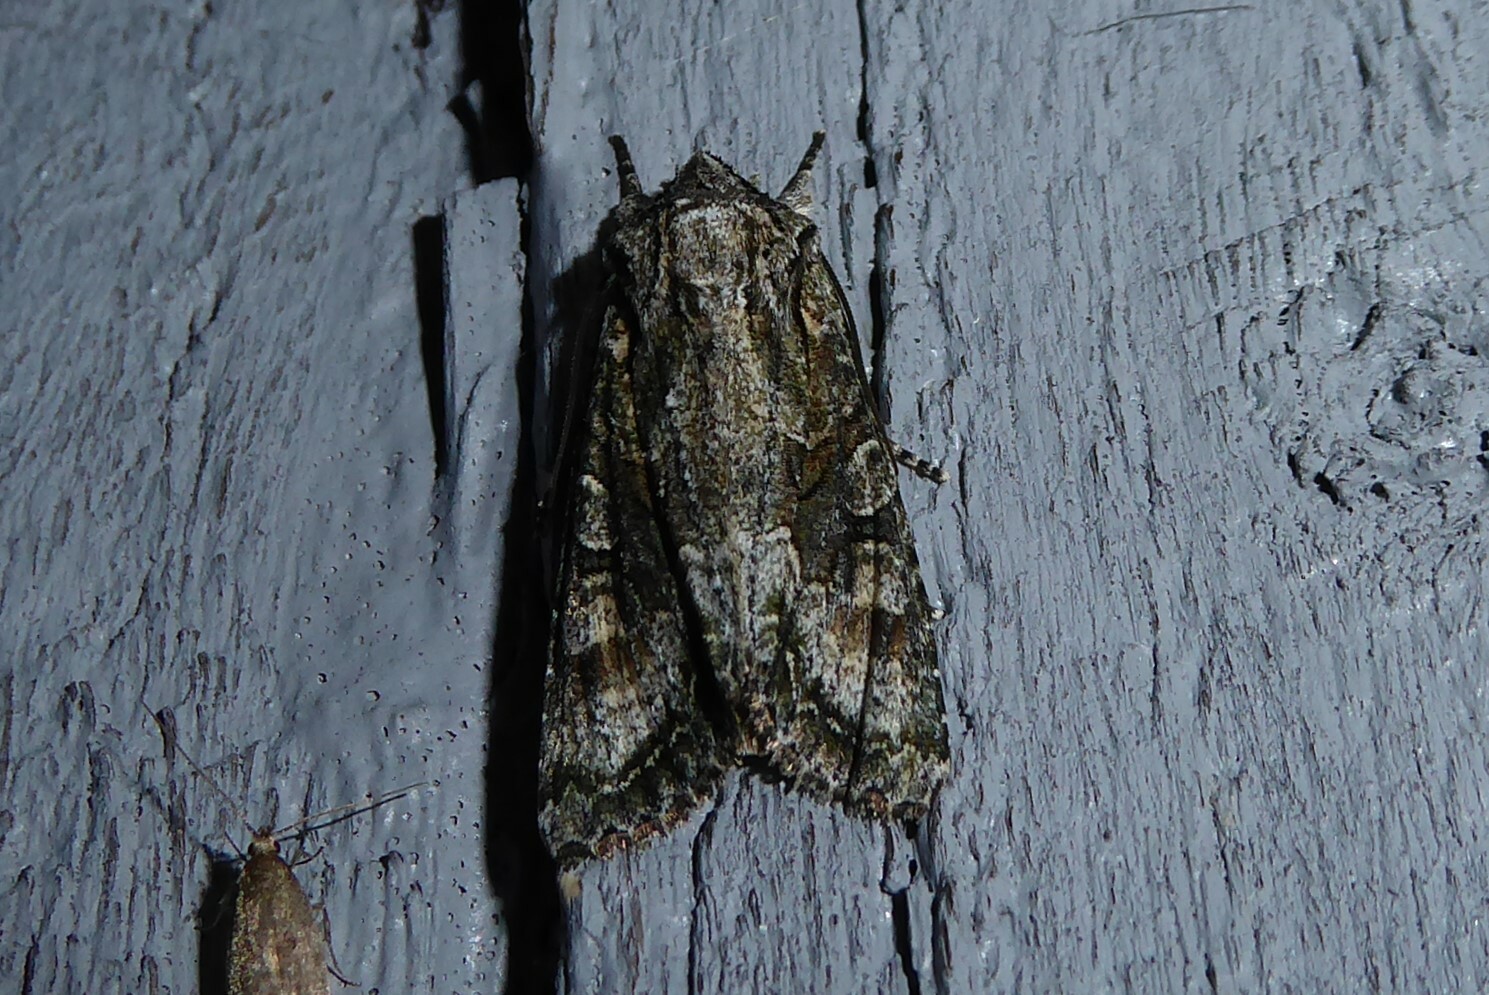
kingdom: Animalia
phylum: Arthropoda
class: Insecta
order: Lepidoptera
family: Noctuidae
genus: Ichneutica
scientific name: Ichneutica mutans
